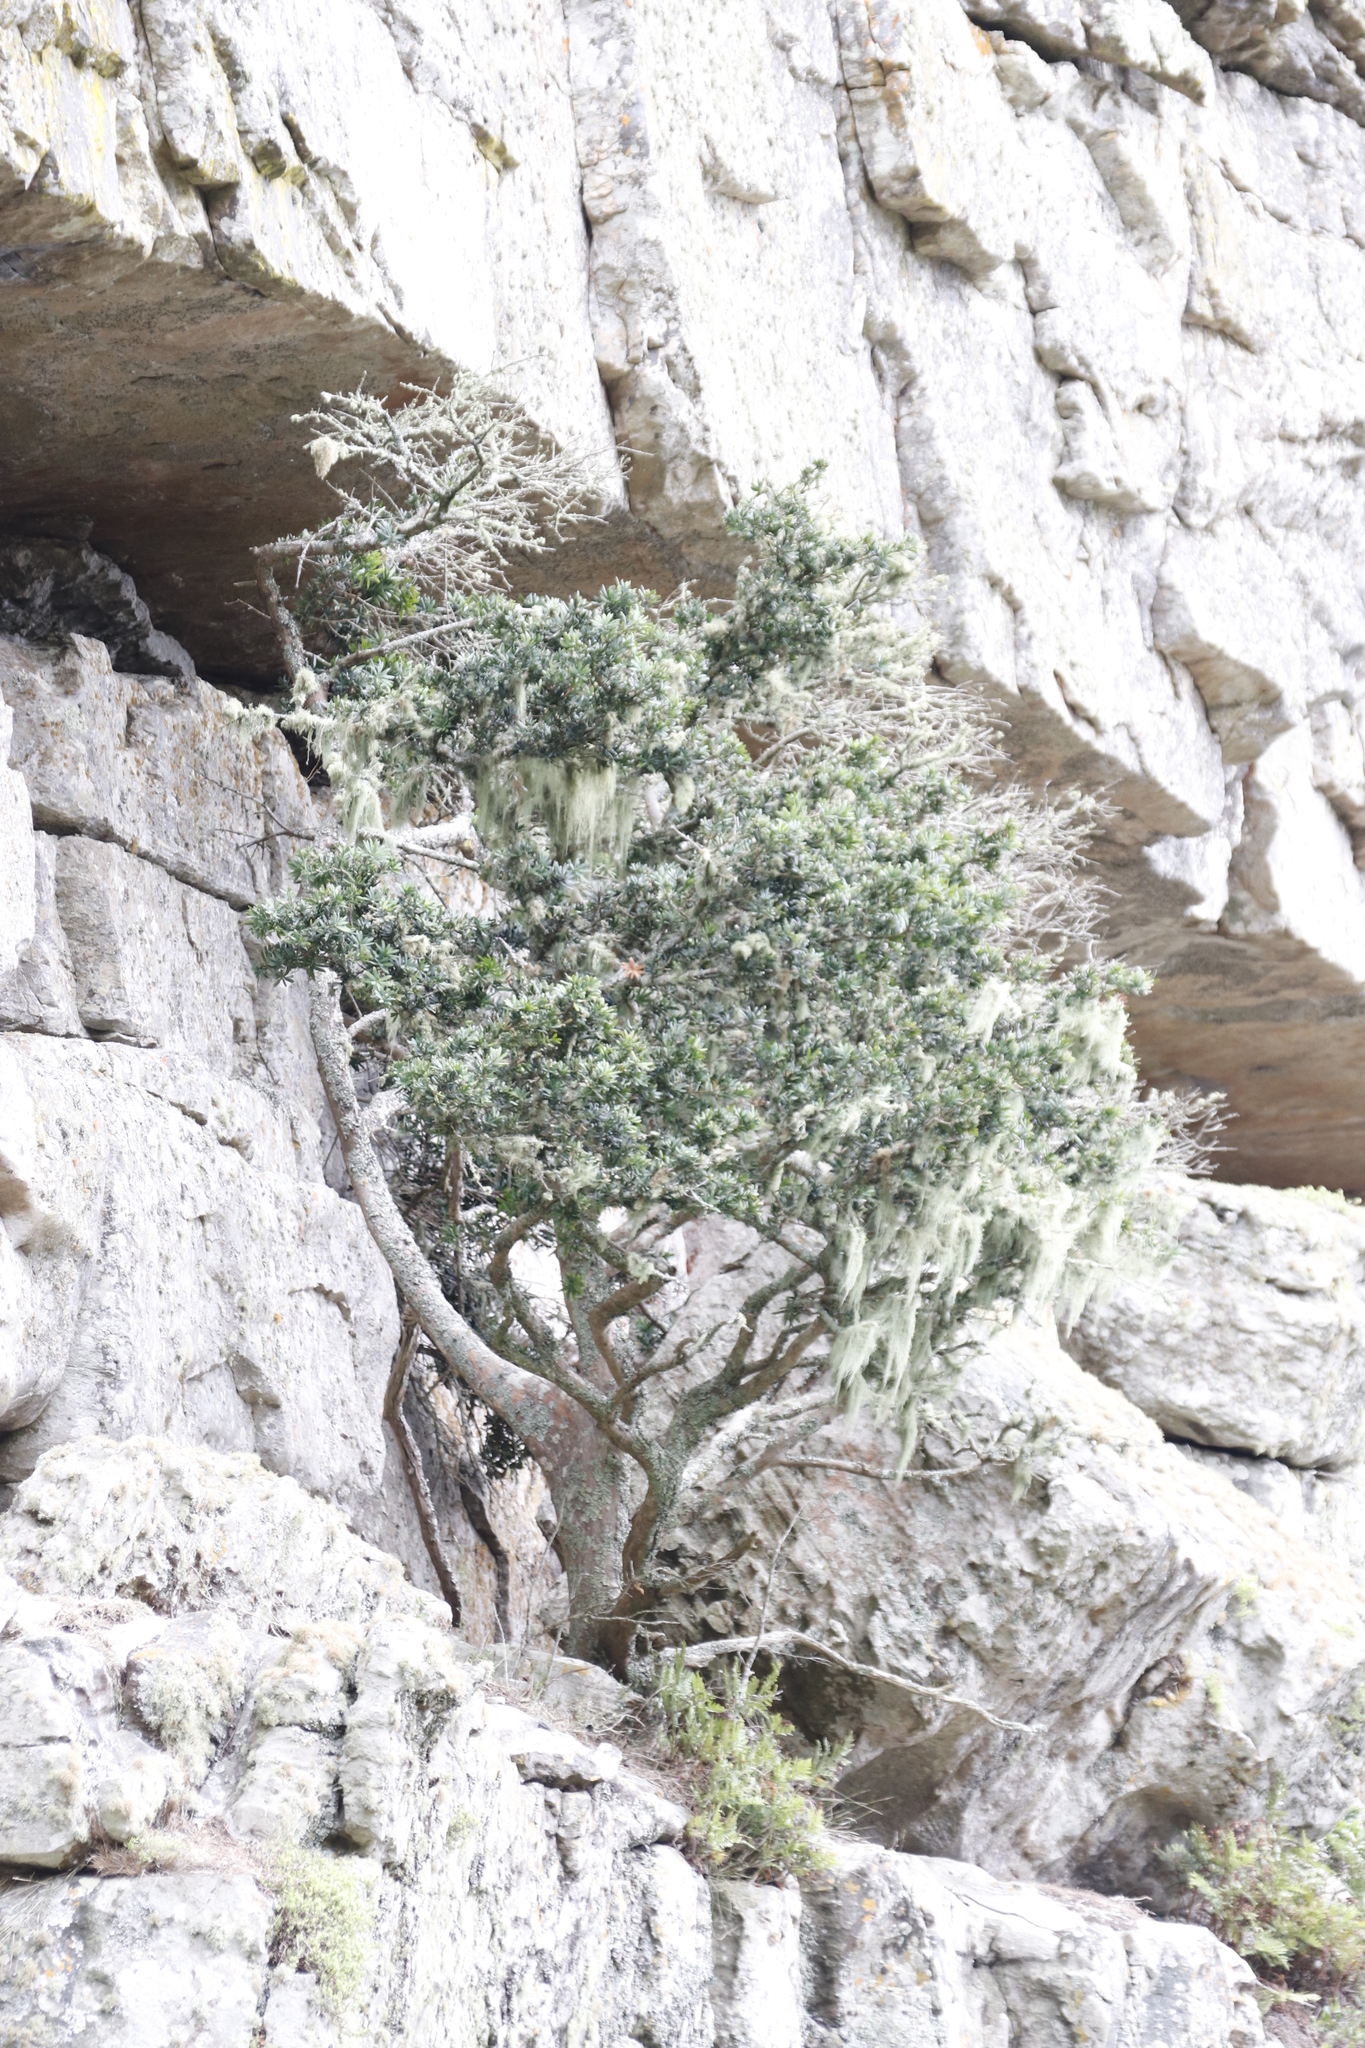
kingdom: Plantae
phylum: Tracheophyta
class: Pinopsida
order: Pinales
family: Podocarpaceae
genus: Podocarpus
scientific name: Podocarpus latifolius
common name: True yellowwood
